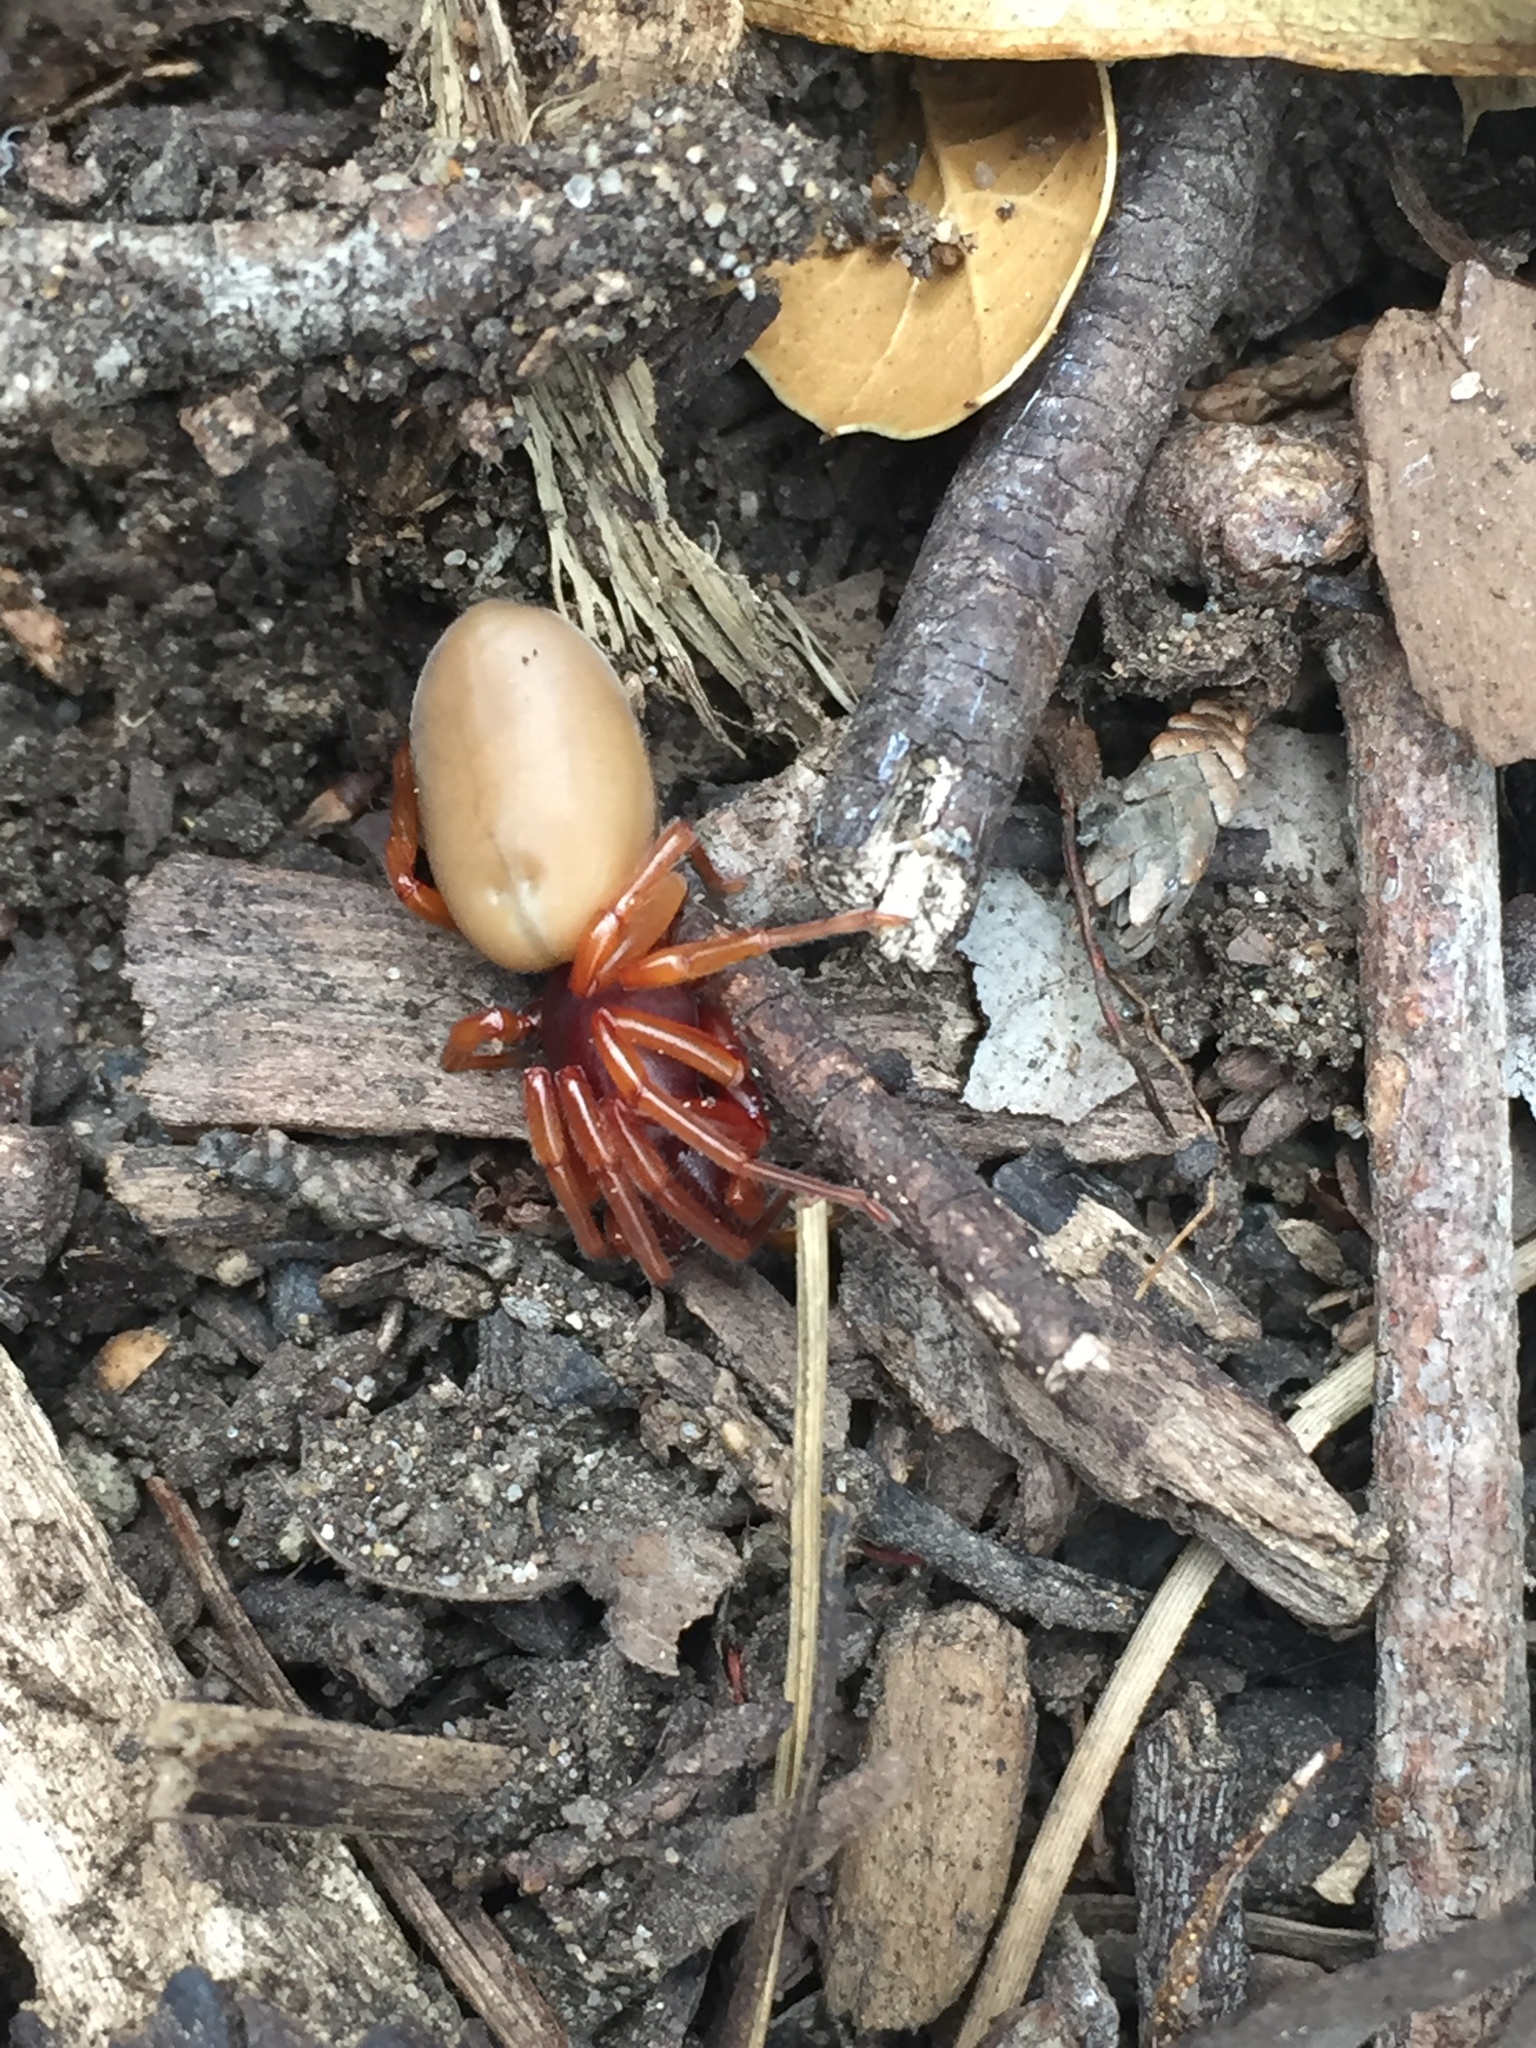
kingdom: Animalia
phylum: Arthropoda
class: Arachnida
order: Araneae
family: Dysderidae
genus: Dysdera
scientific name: Dysdera crocata
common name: Woodlouse spider
